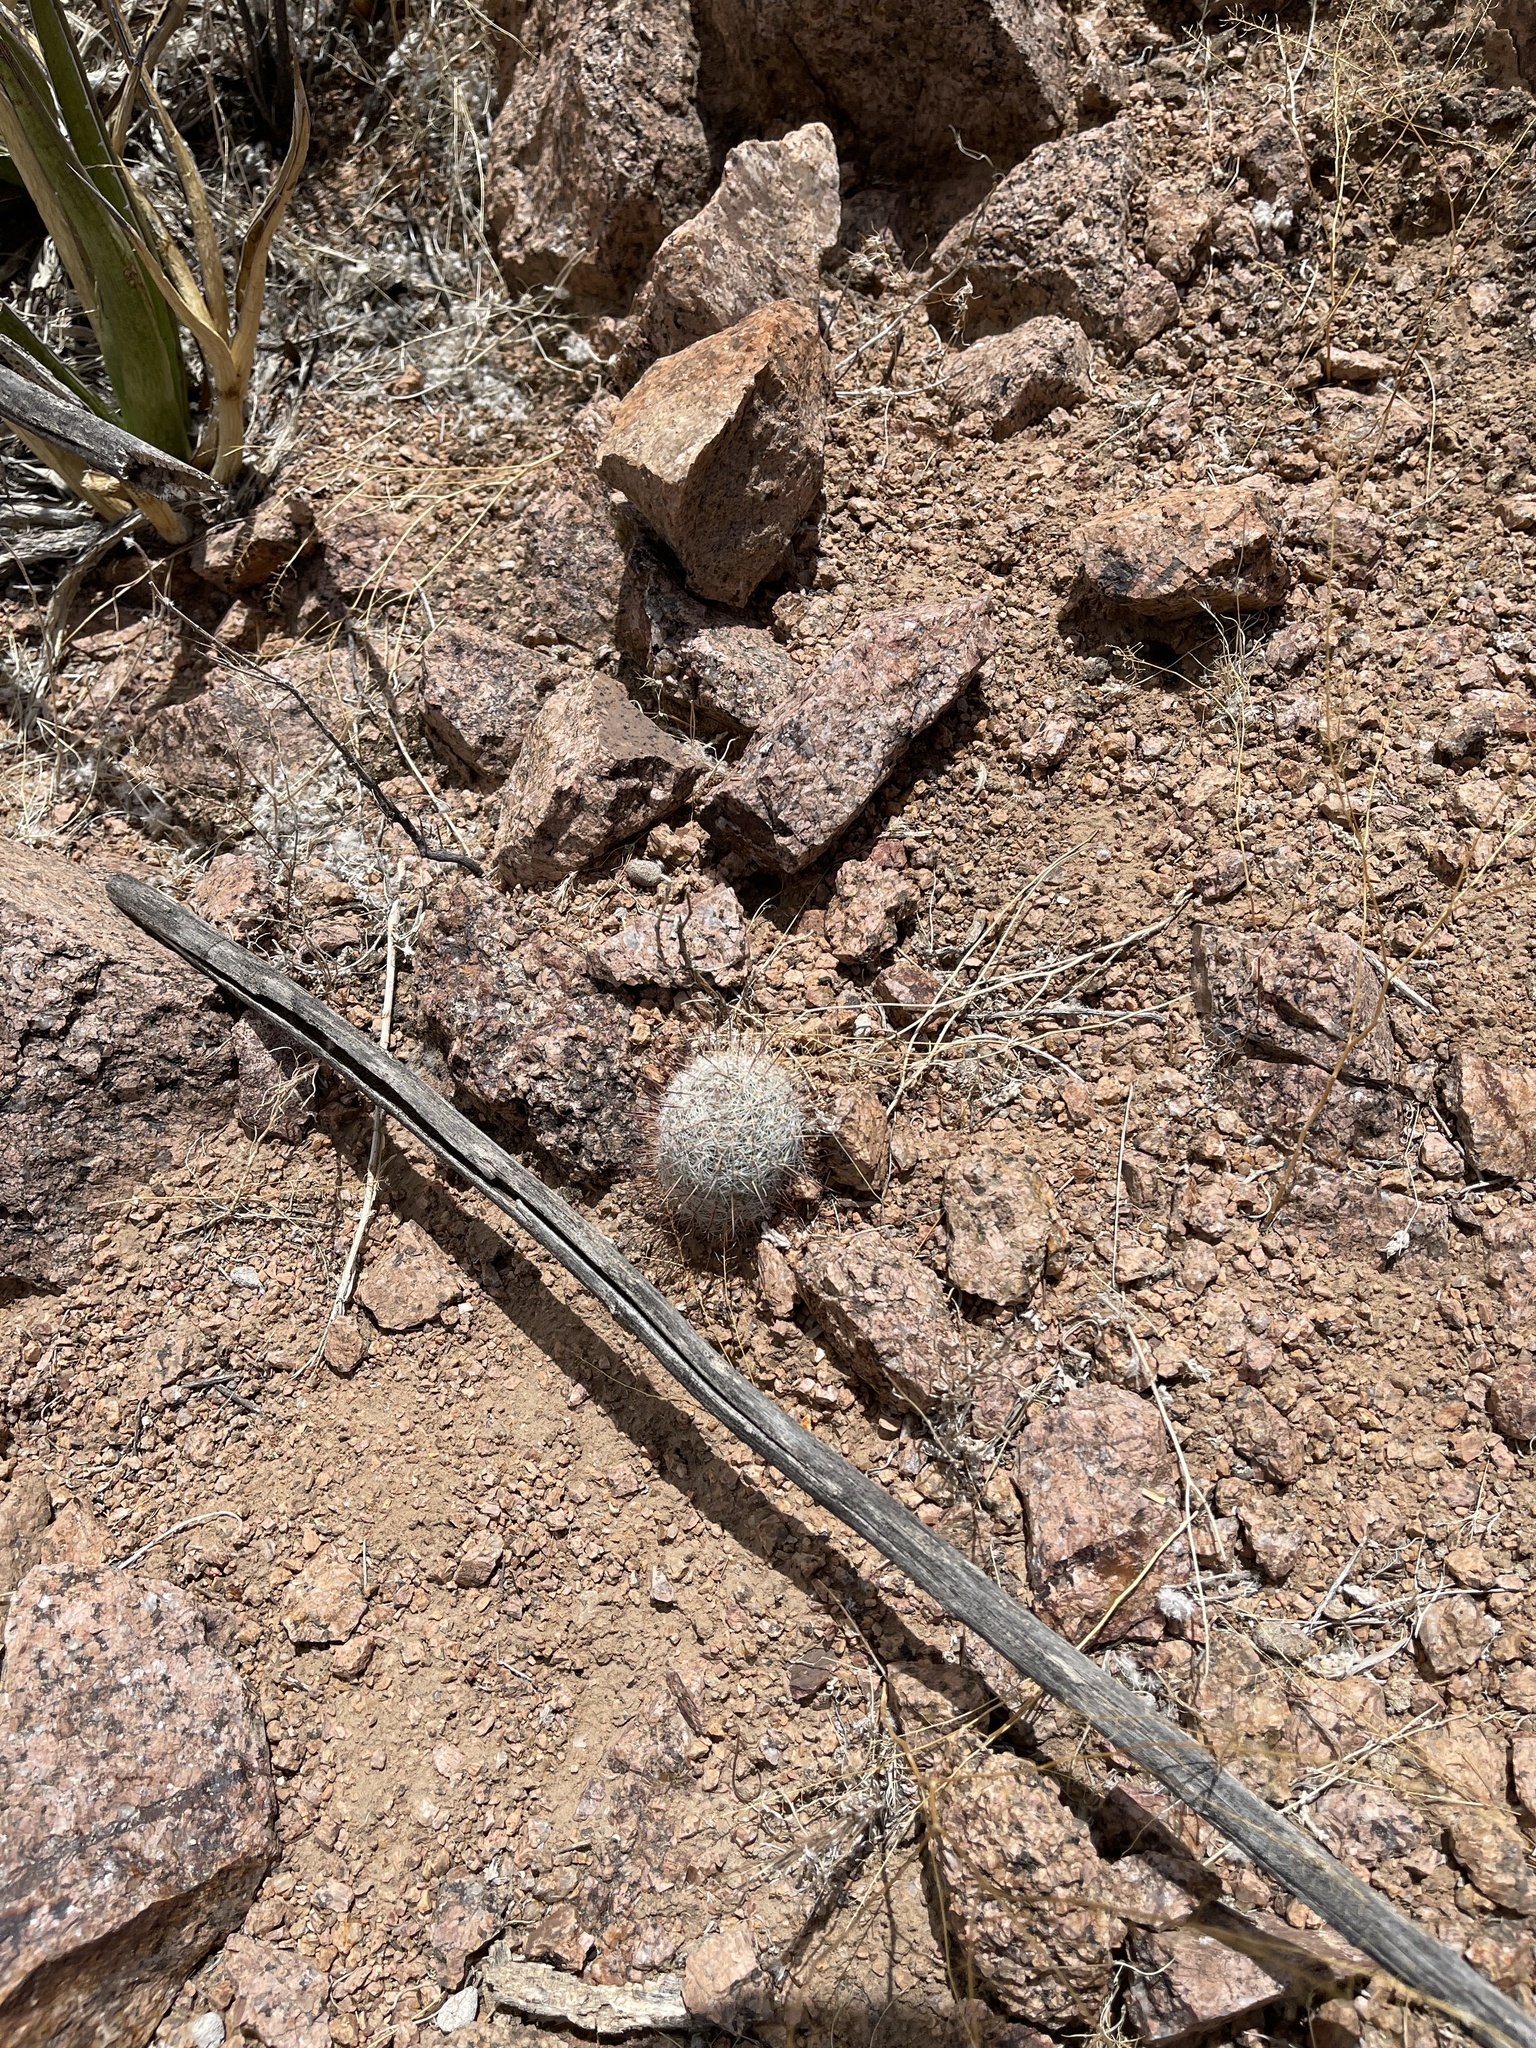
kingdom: Plantae
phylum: Tracheophyta
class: Magnoliopsida
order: Caryophyllales
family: Cactaceae
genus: Cochemiea
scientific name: Cochemiea grahamii
